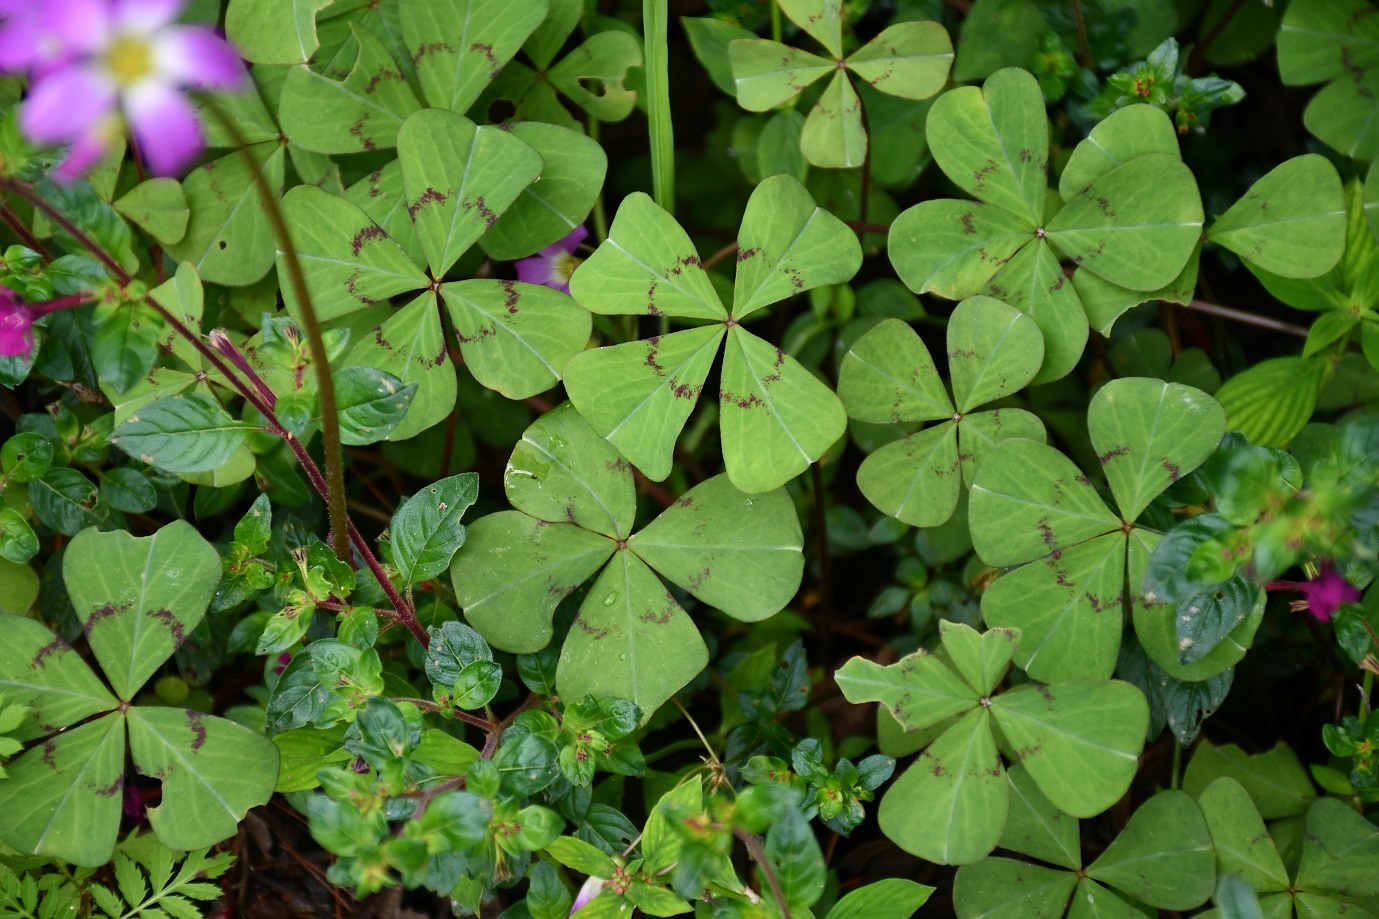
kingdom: Plantae
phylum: Tracheophyta
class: Magnoliopsida
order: Oxalidales
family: Oxalidaceae
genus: Oxalis
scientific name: Oxalis tetraphylla
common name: Four-leaved pink-sorrel
